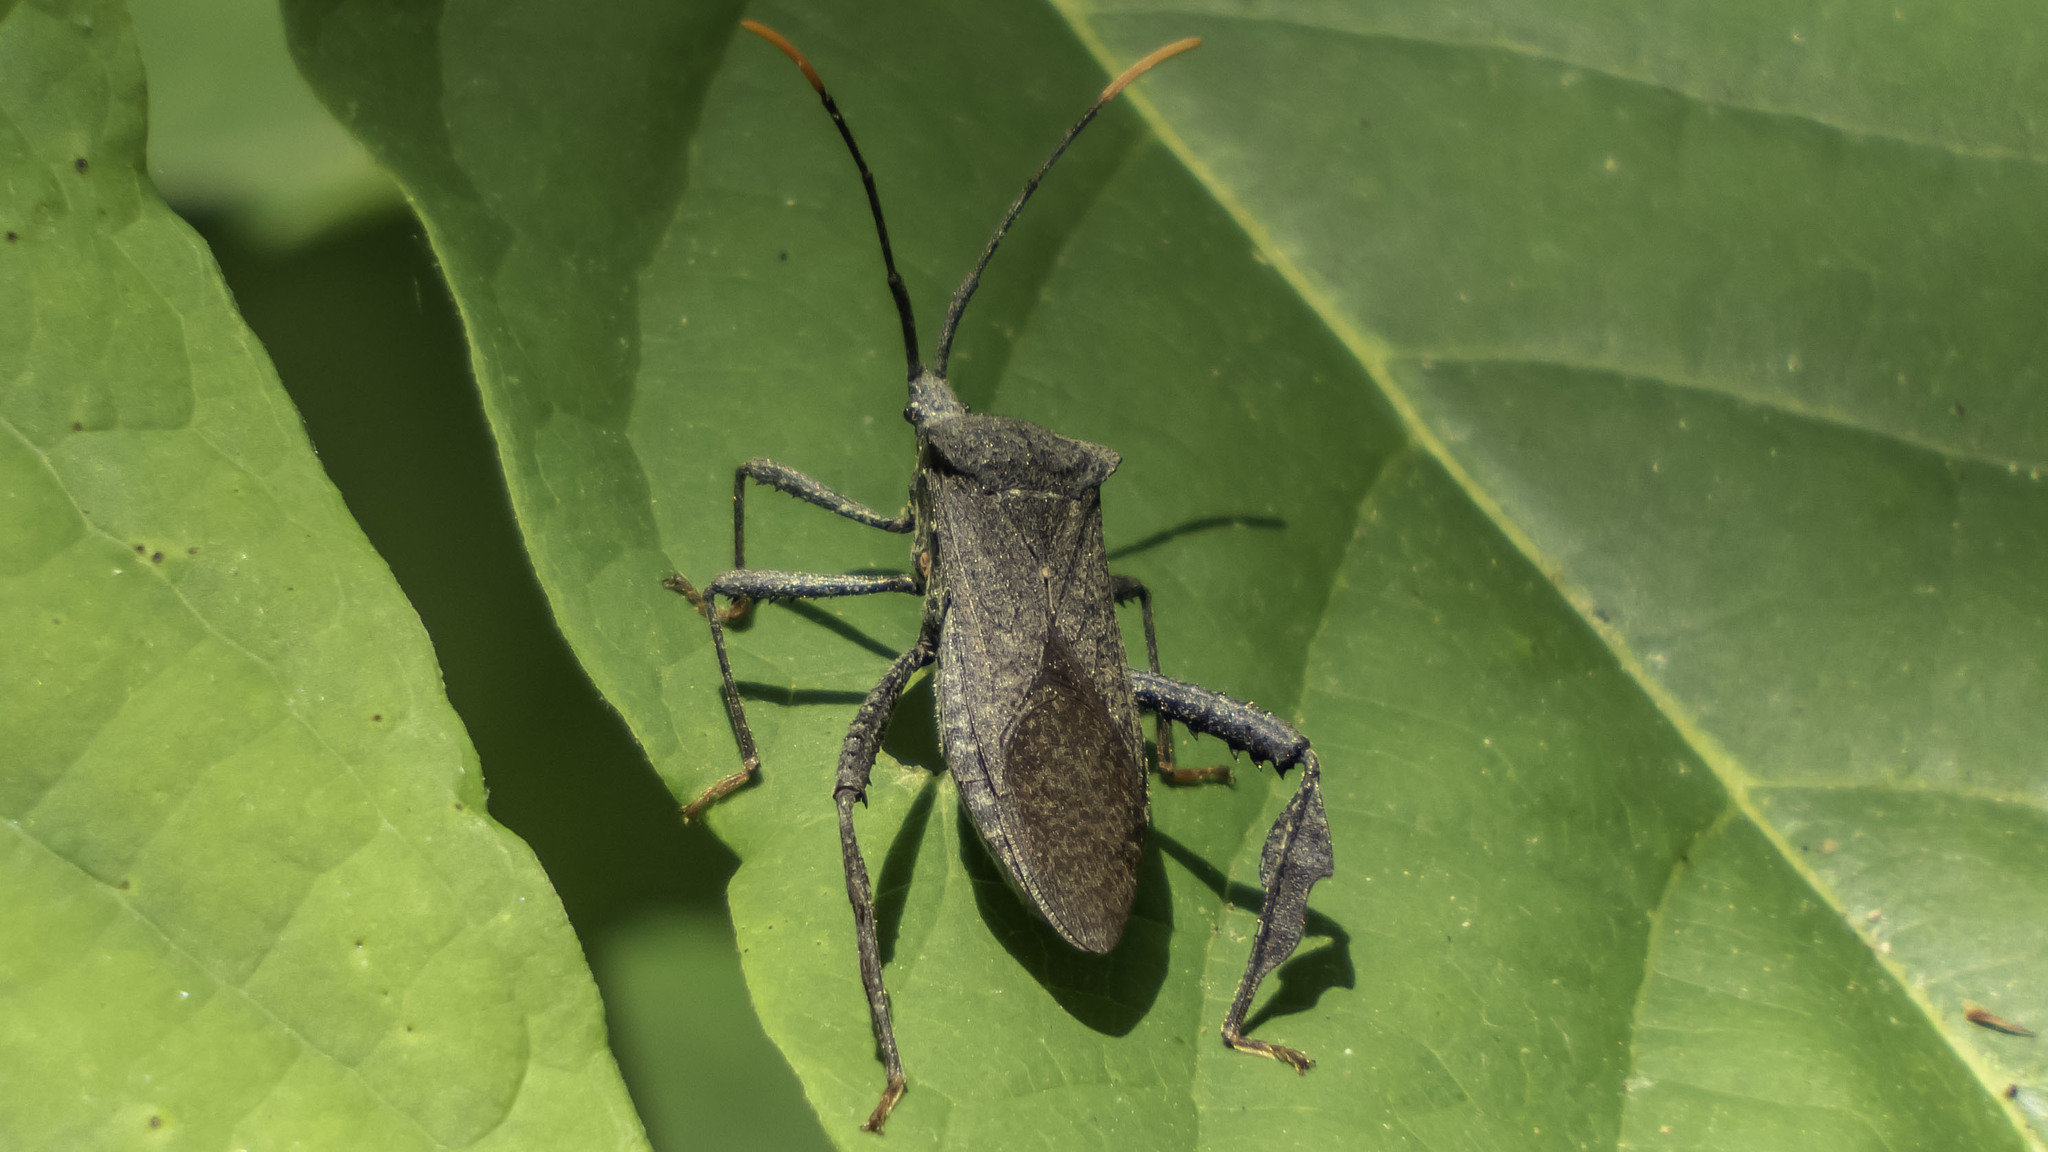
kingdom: Animalia
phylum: Arthropoda
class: Insecta
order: Hemiptera
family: Coreidae
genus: Acanthocephala
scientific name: Acanthocephala terminalis
